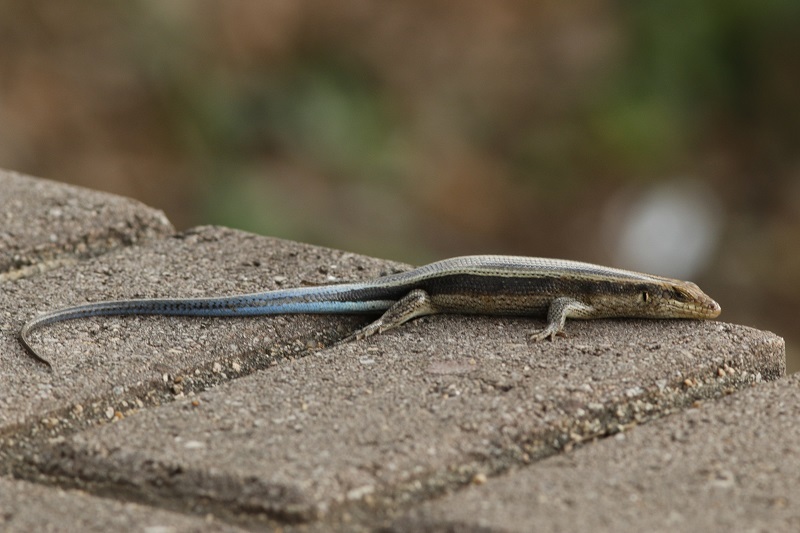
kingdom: Animalia
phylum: Chordata
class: Squamata
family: Scincidae
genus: Trachylepis
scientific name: Trachylepis margaritifera
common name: Rainbow skink
